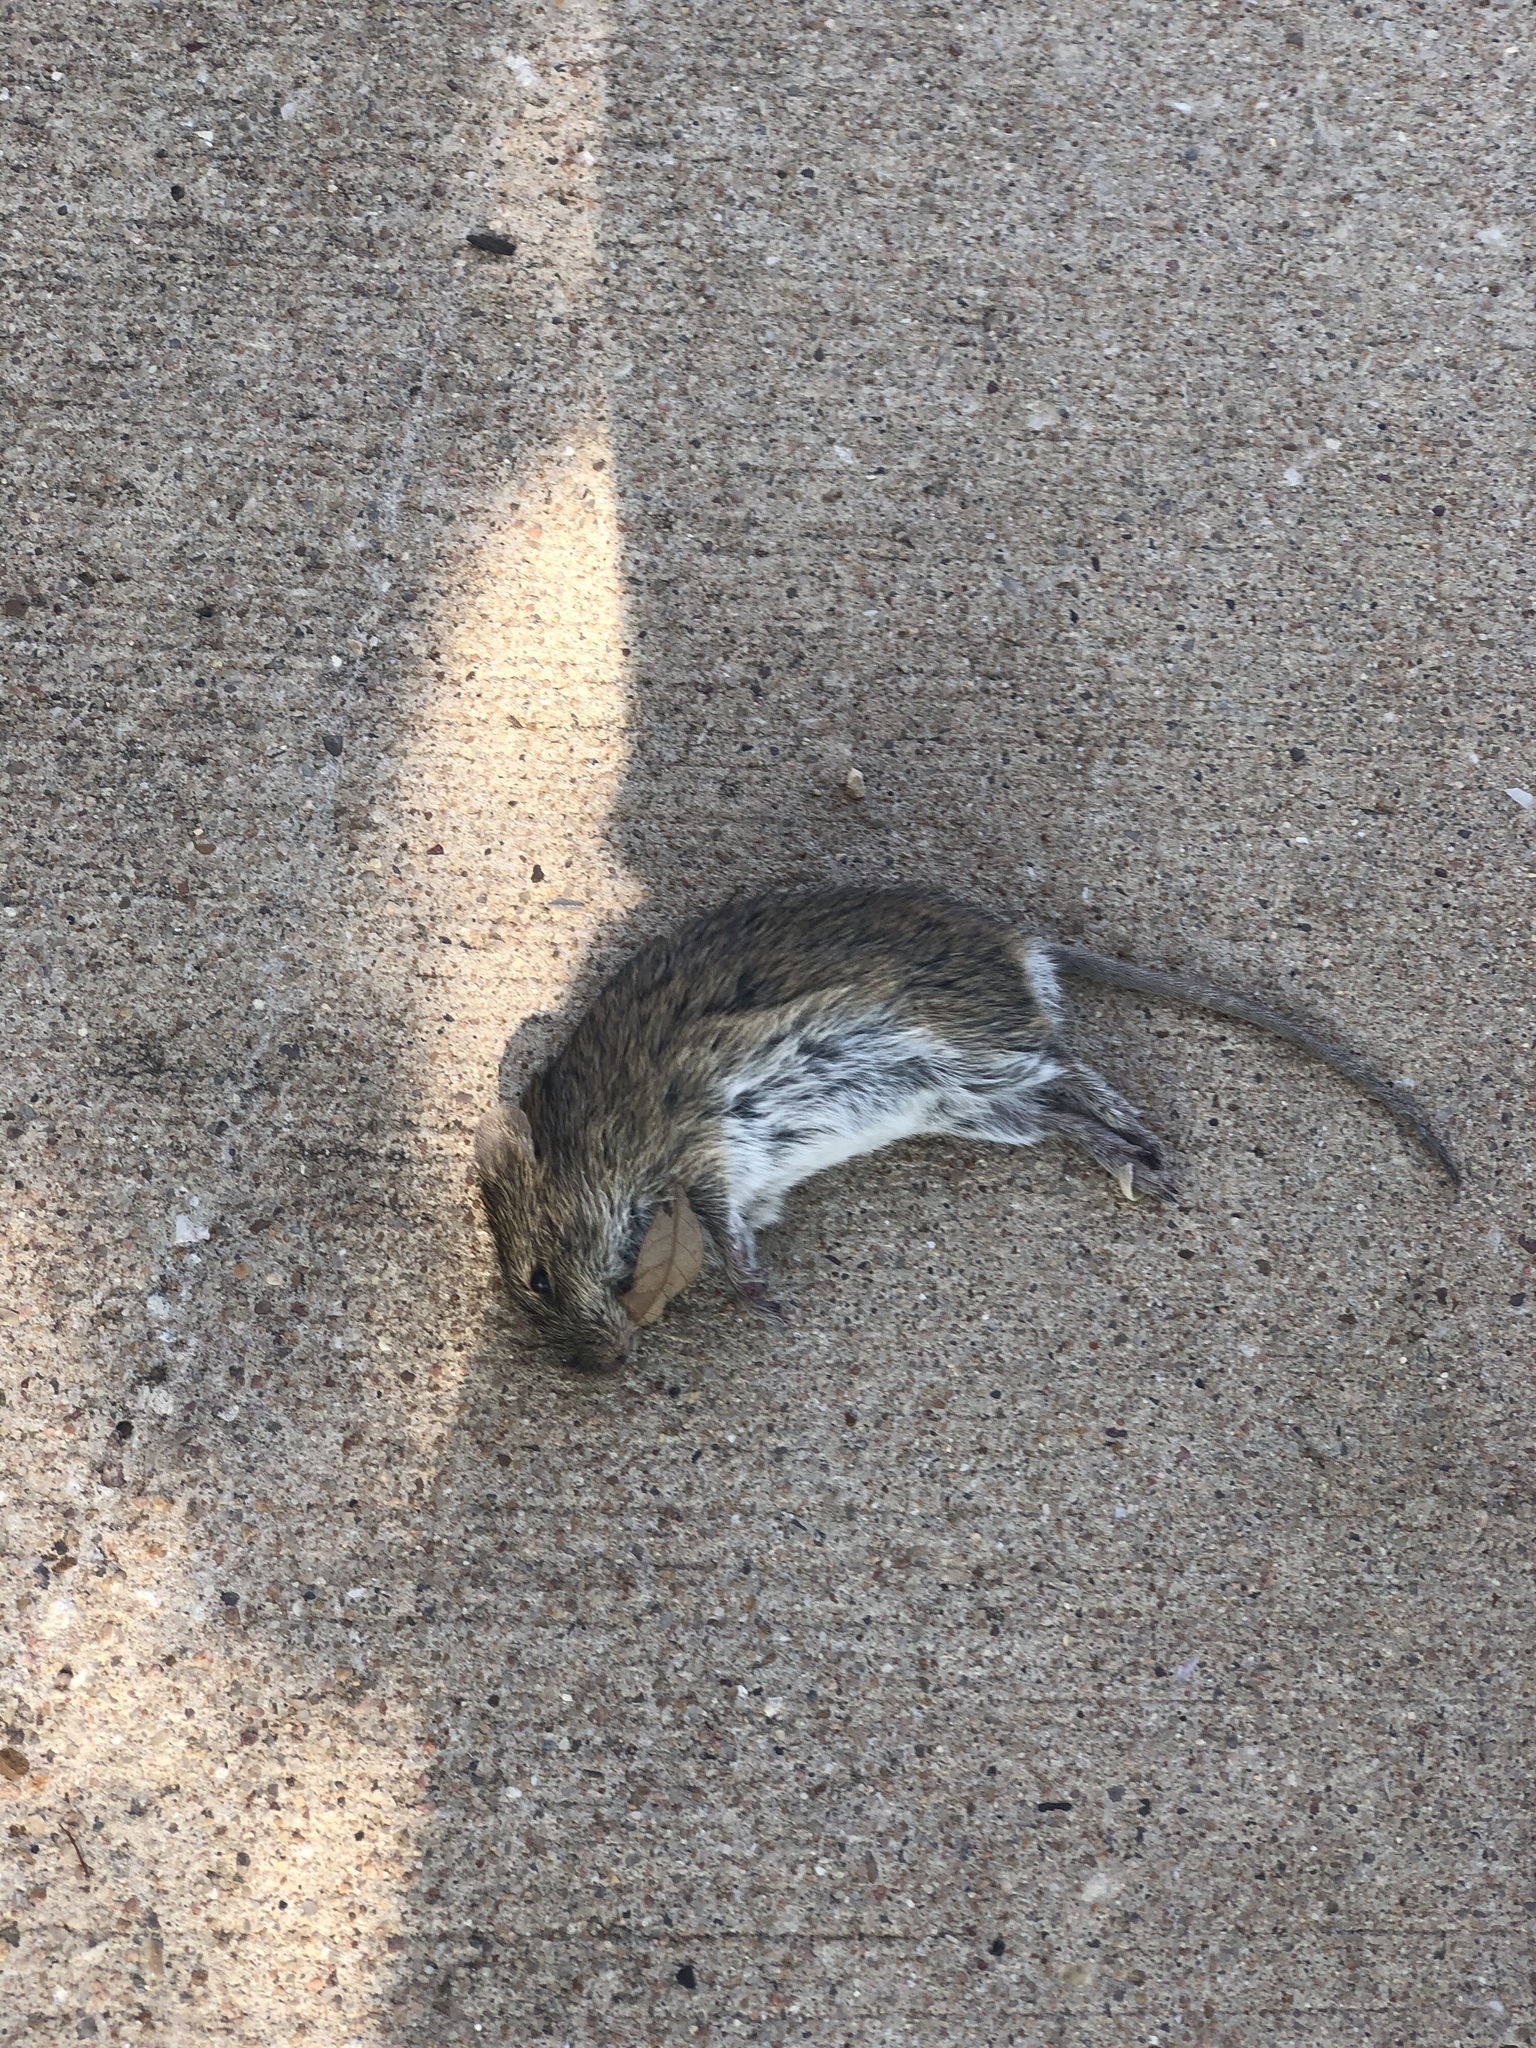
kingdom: Animalia
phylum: Chordata
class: Mammalia
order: Rodentia
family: Cricetidae
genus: Sigmodon
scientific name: Sigmodon hispidus
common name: Hispid cotton rat
